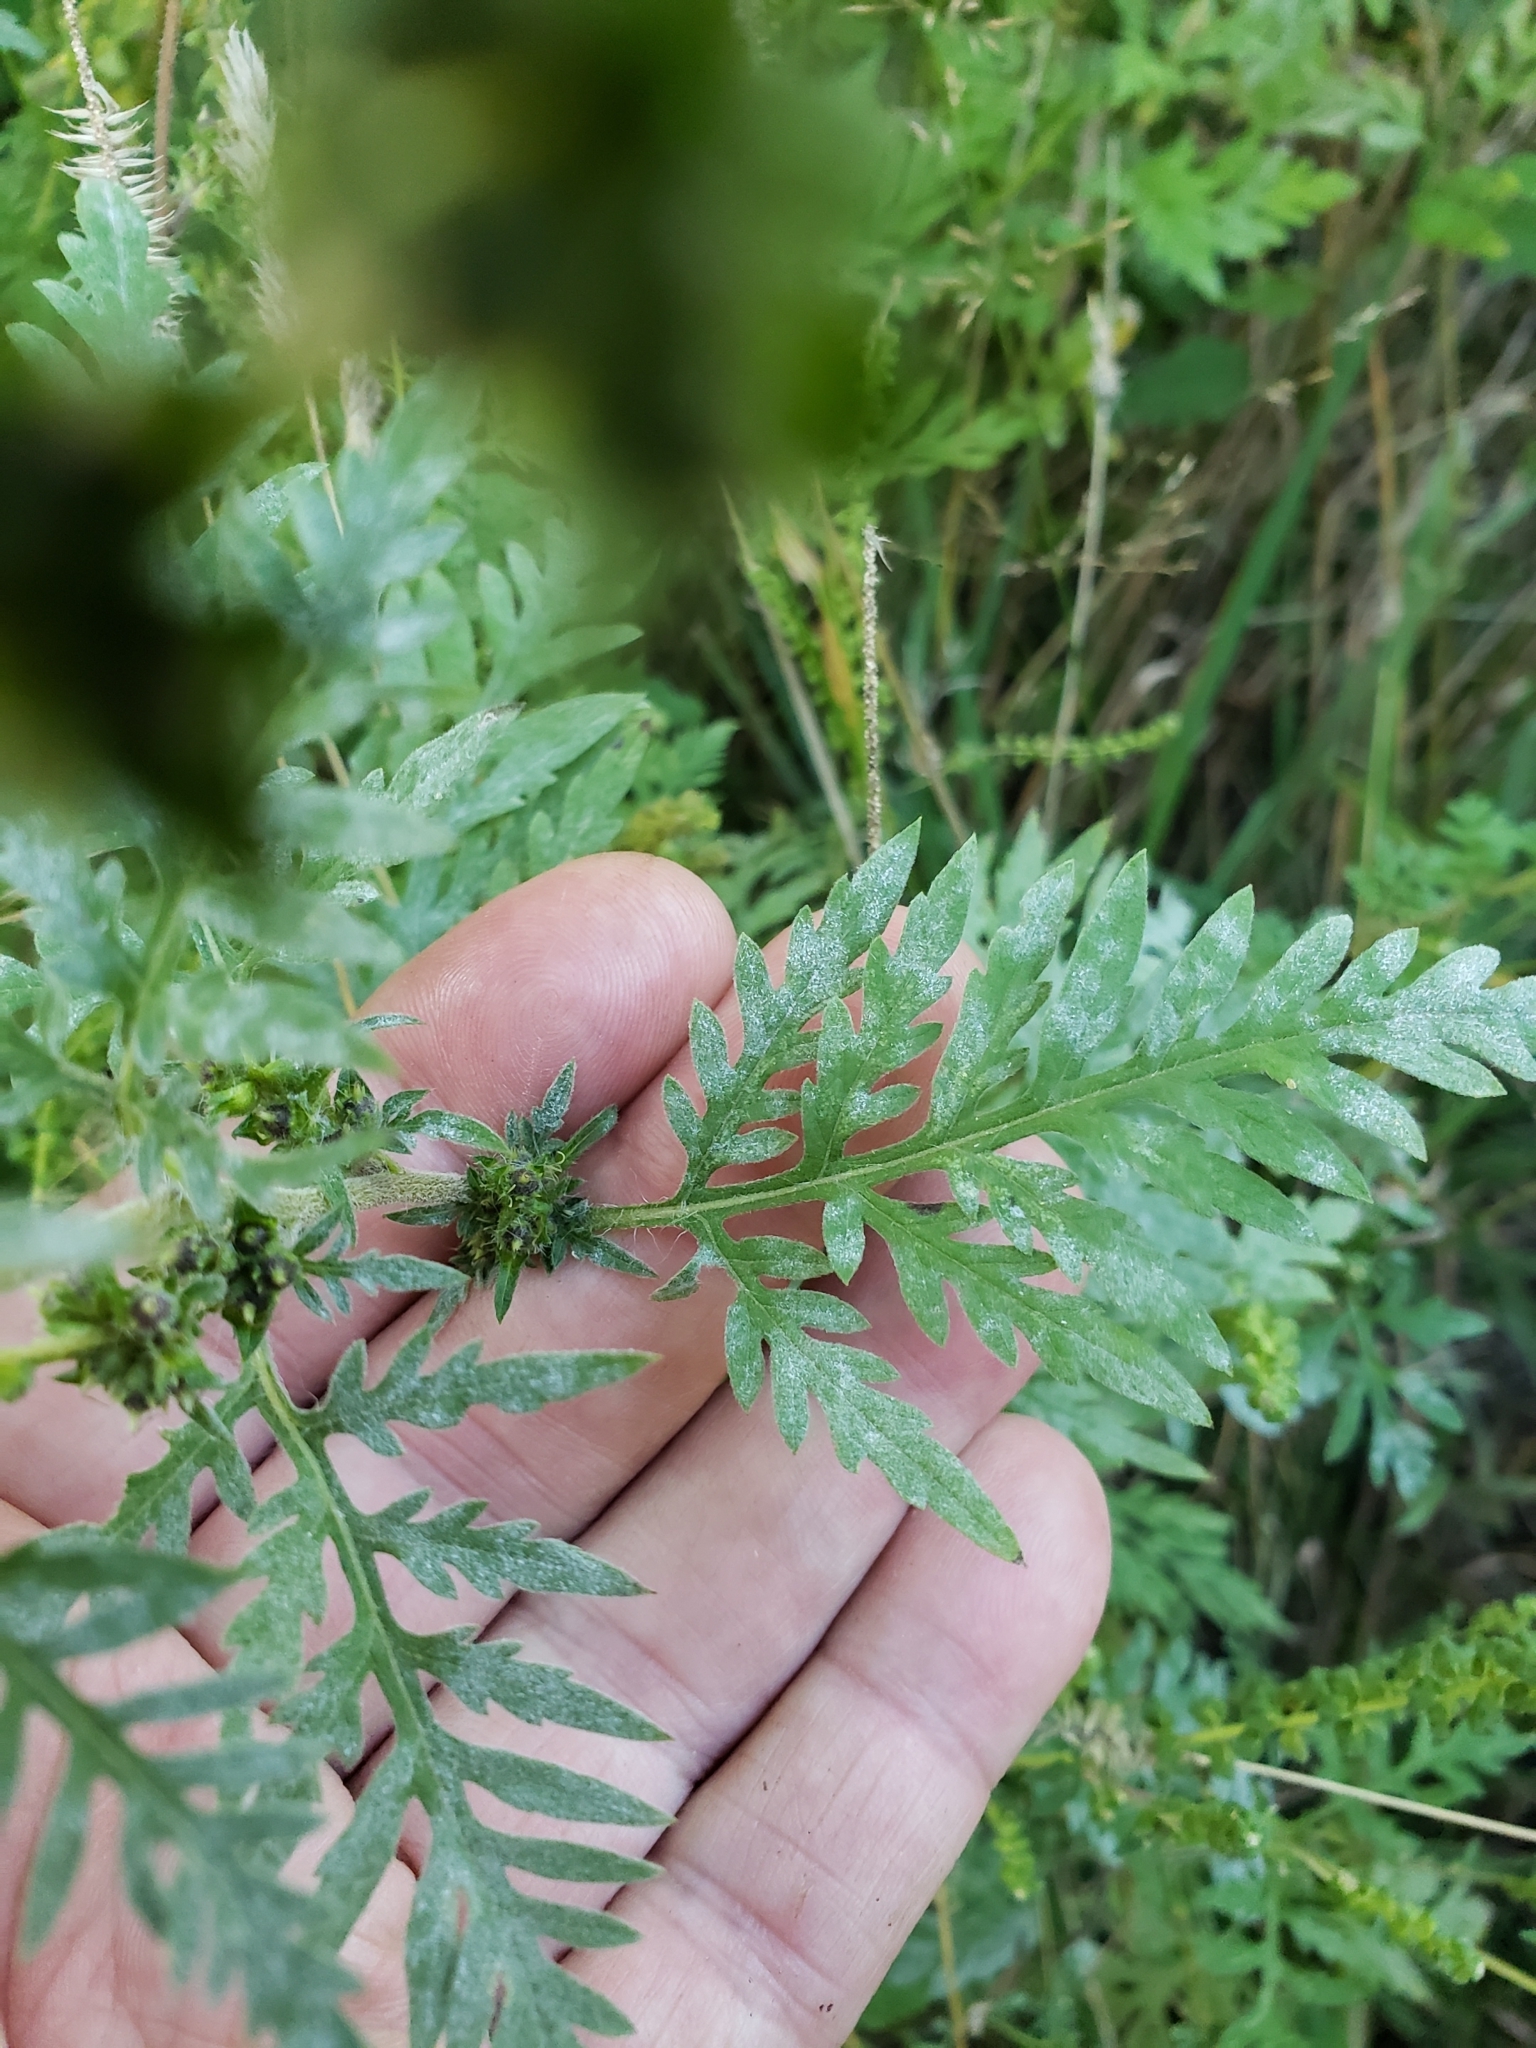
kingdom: Fungi
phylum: Ascomycota
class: Leotiomycetes
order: Helotiales
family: Erysiphaceae
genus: Golovinomyces
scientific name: Golovinomyces ambrosiae
